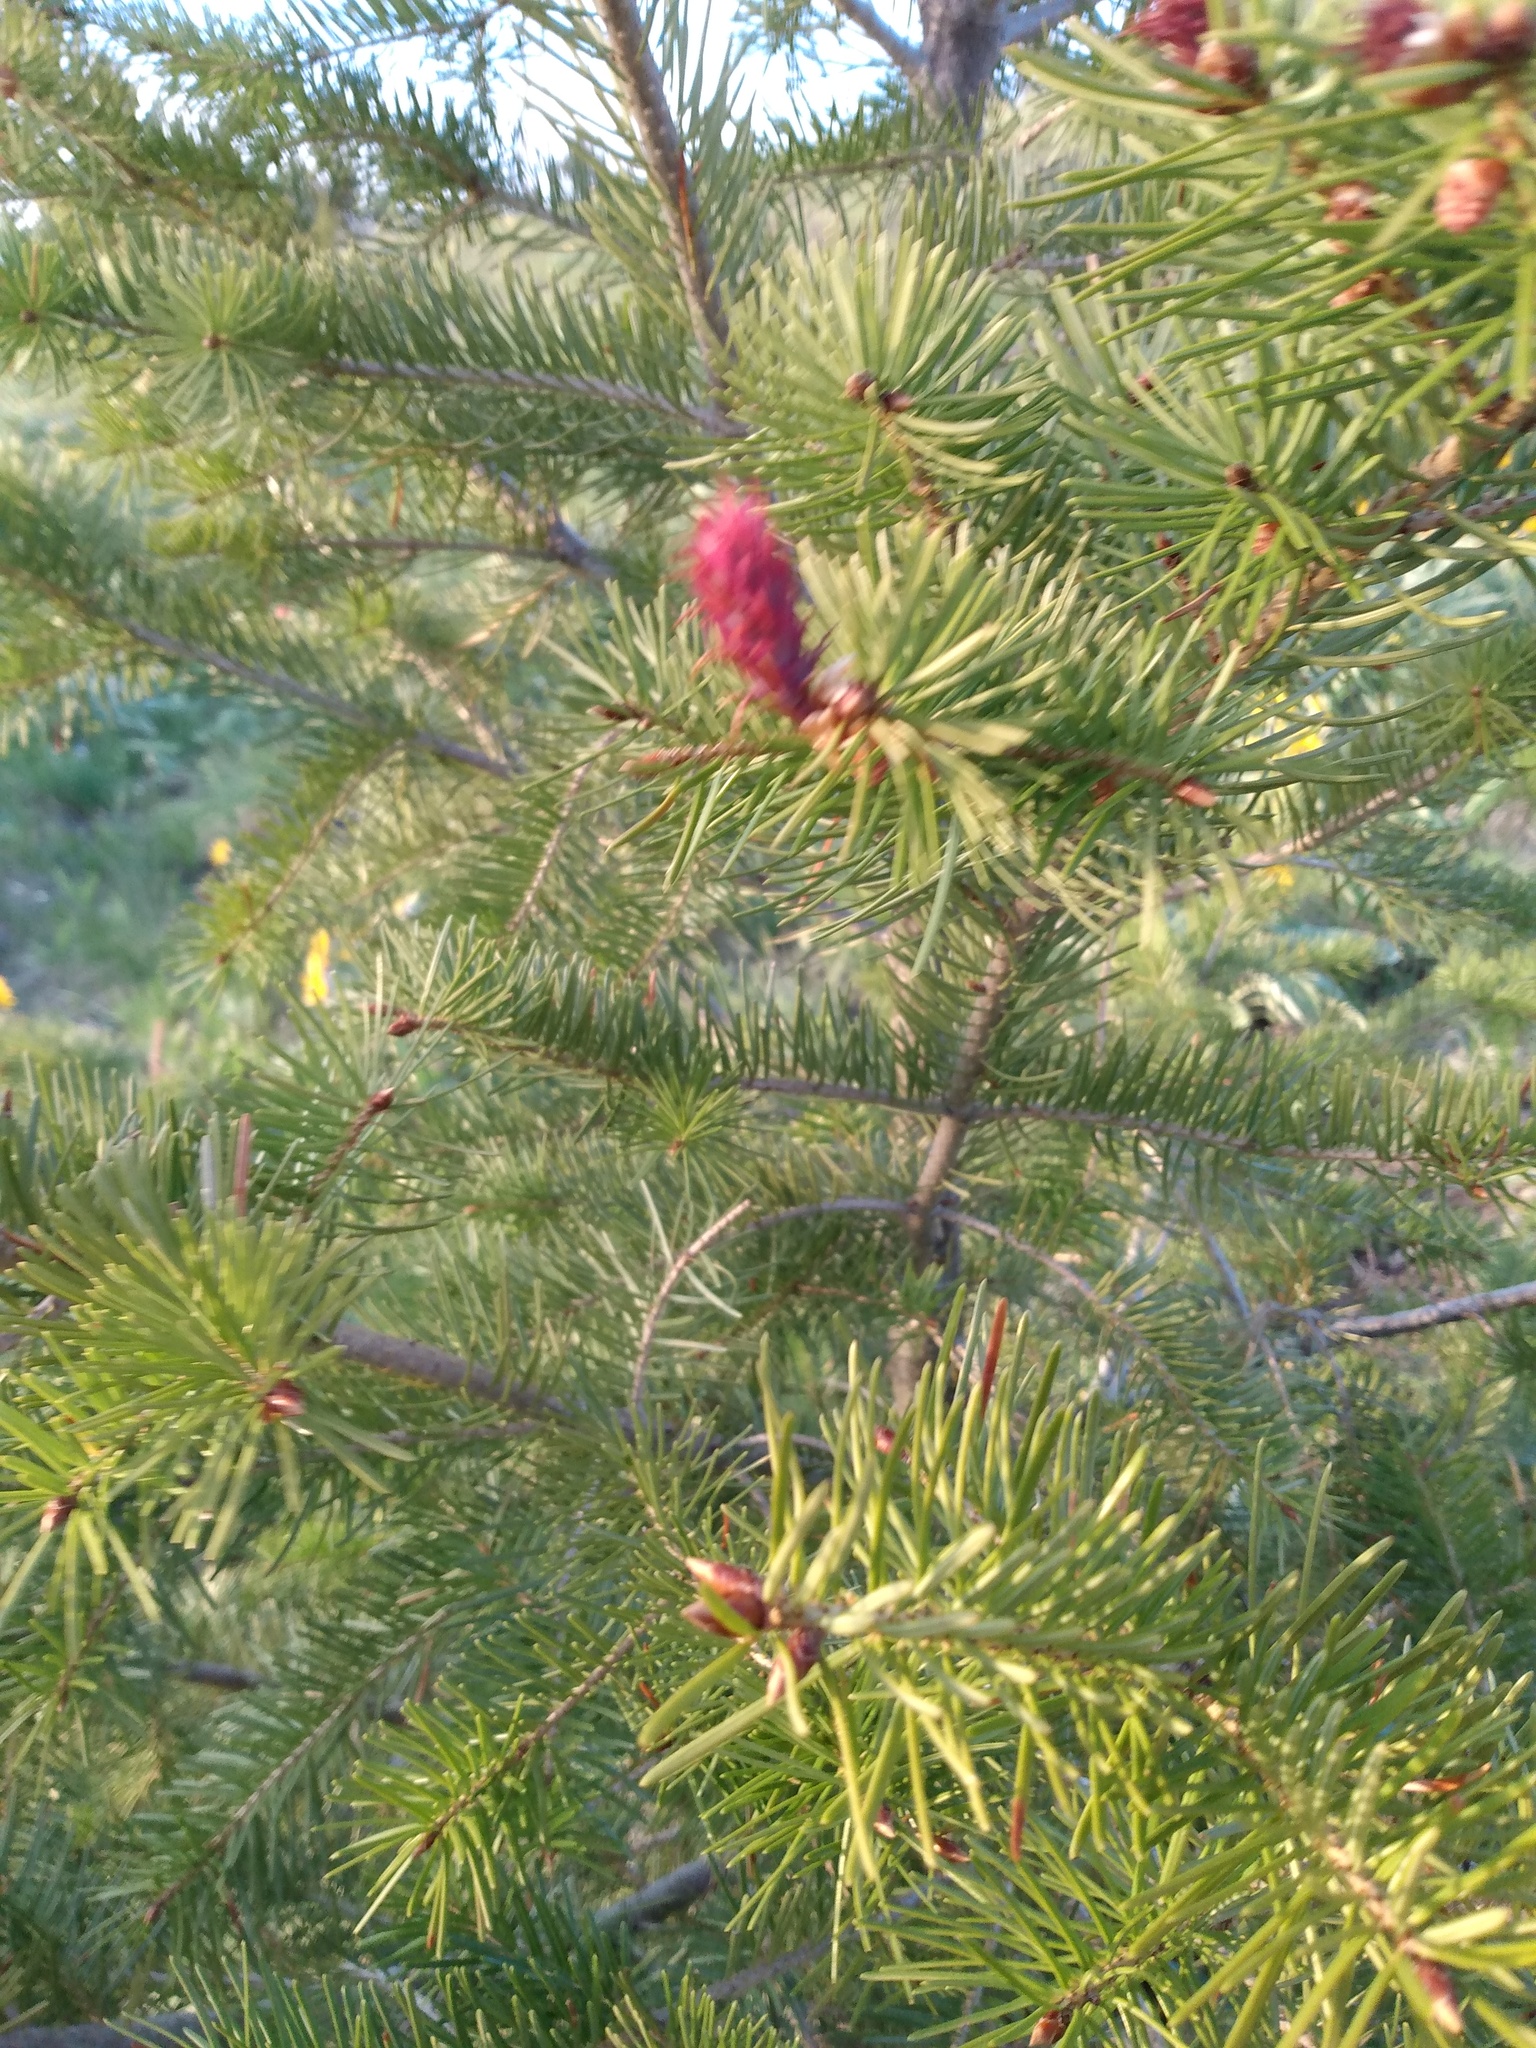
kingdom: Plantae
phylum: Tracheophyta
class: Pinopsida
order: Pinales
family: Pinaceae
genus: Pseudotsuga
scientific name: Pseudotsuga menziesii
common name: Douglas fir
